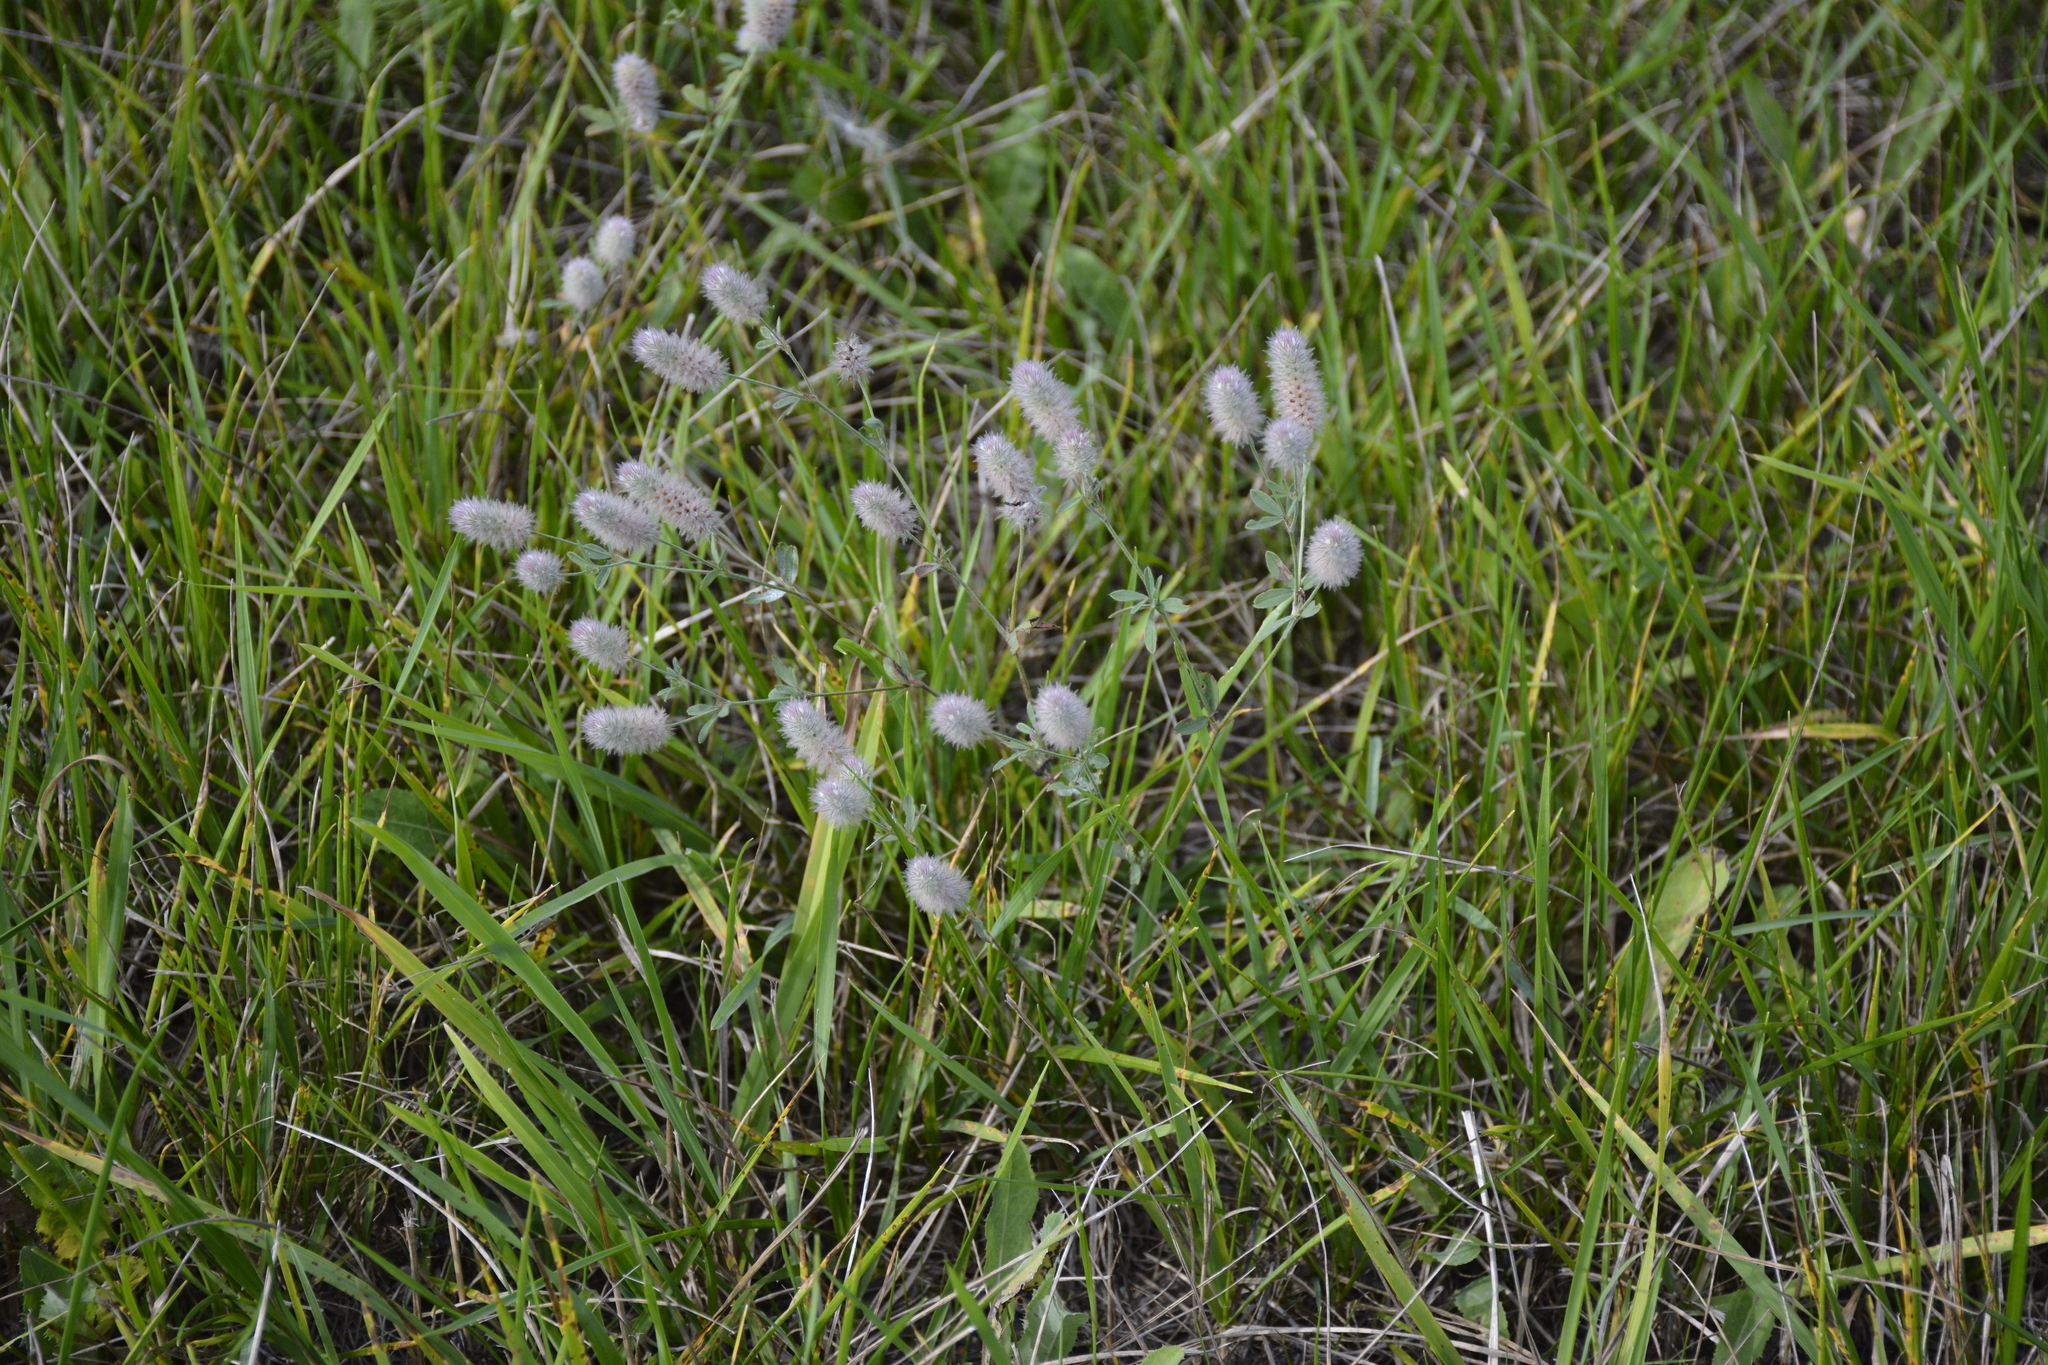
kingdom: Plantae
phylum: Tracheophyta
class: Magnoliopsida
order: Fabales
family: Fabaceae
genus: Trifolium
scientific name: Trifolium arvense
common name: Hare's-foot clover
